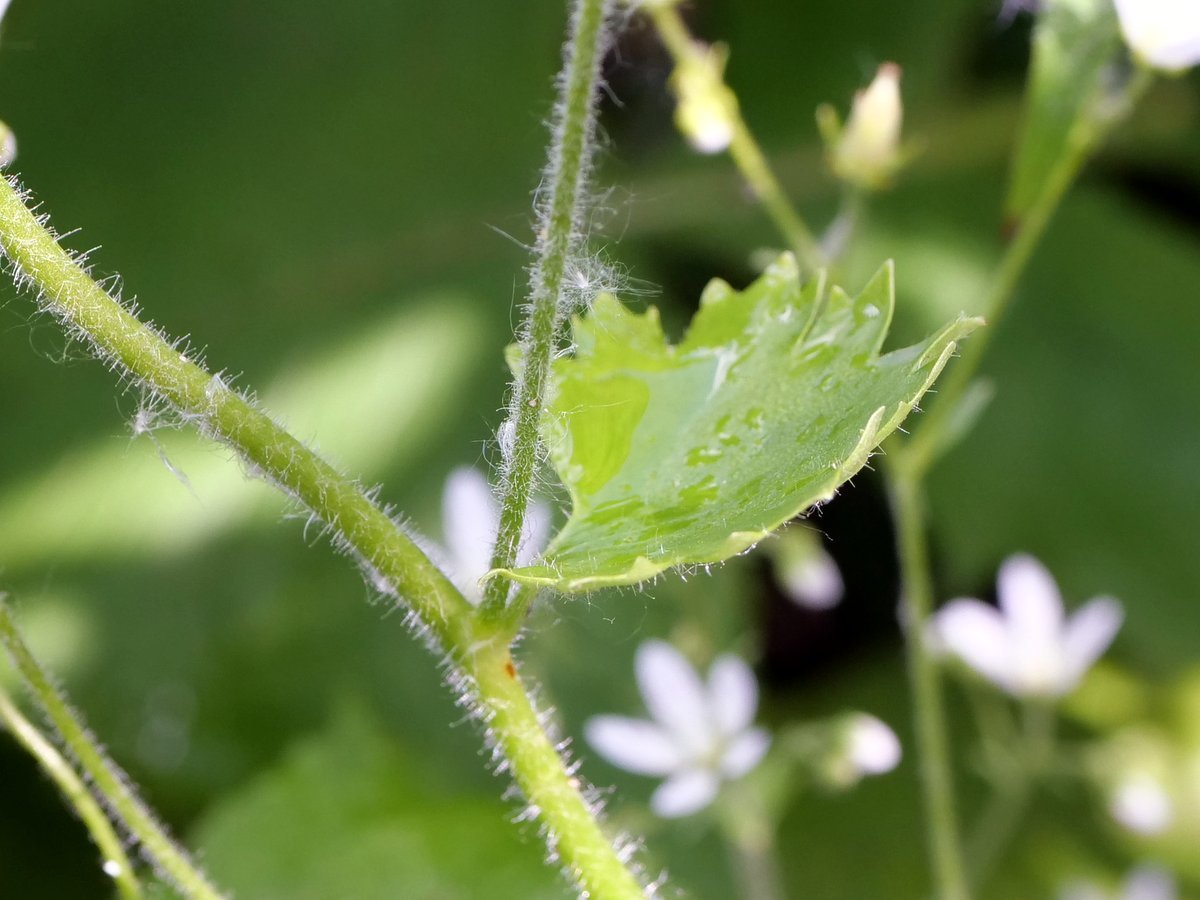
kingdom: Plantae
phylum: Tracheophyta
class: Magnoliopsida
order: Saxifragales
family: Saxifragaceae
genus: Saxifraga
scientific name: Saxifraga rotundifolia
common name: Round-leaved saxifrage
